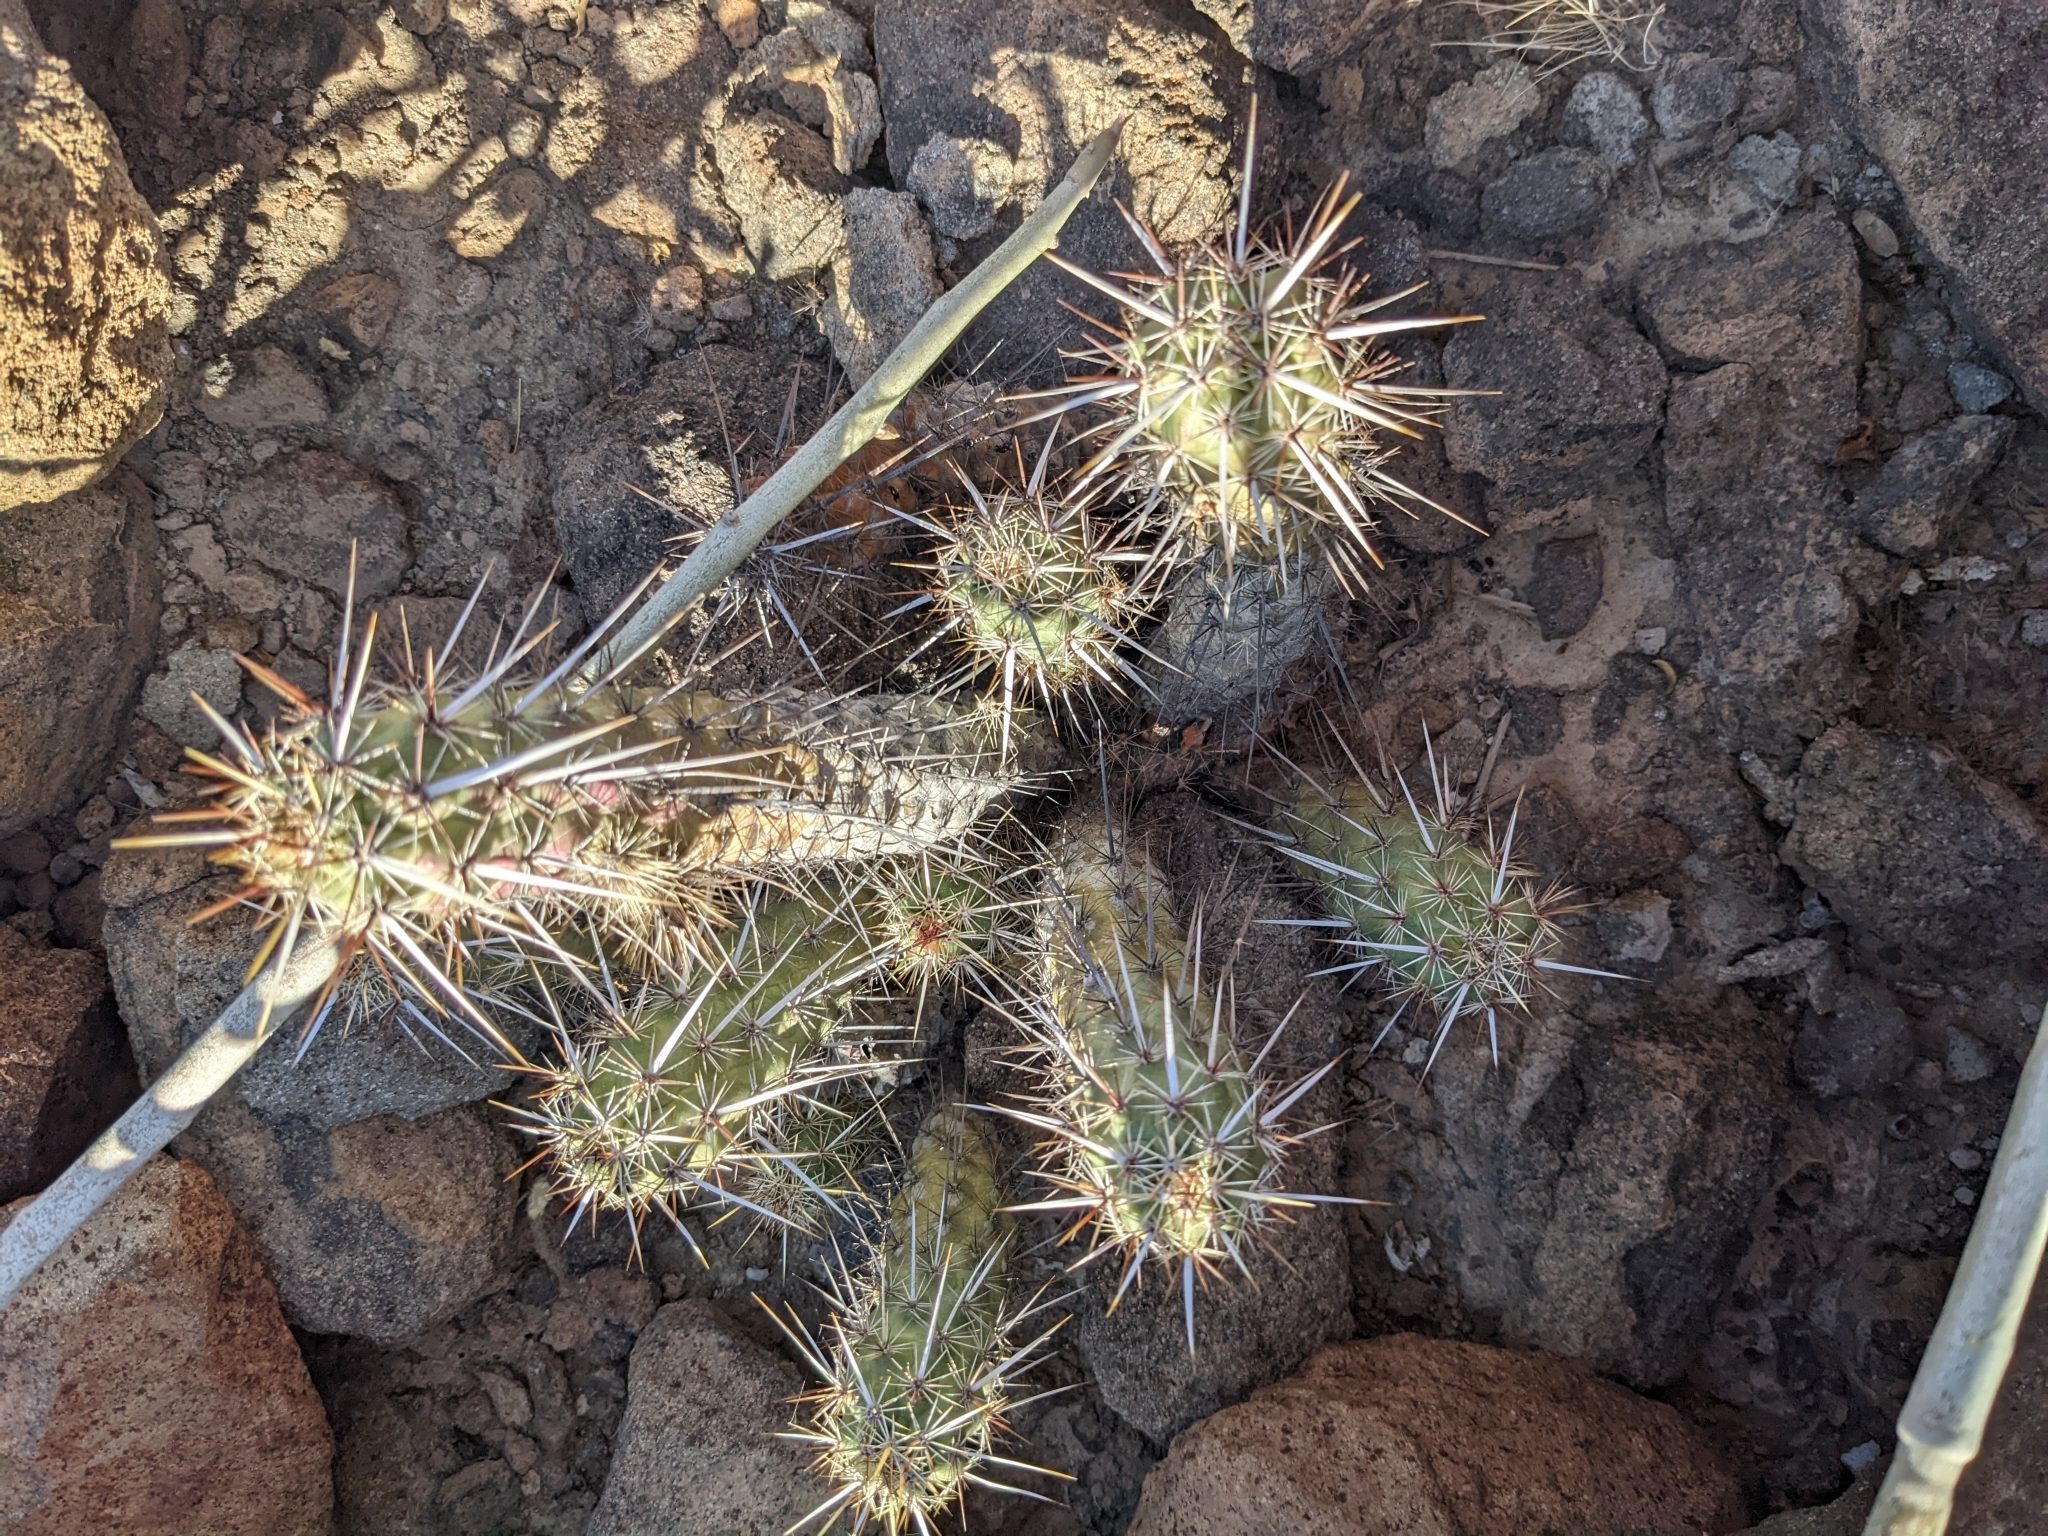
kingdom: Plantae
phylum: Tracheophyta
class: Magnoliopsida
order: Caryophyllales
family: Cactaceae
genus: Echinocereus
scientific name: Echinocereus brandegeei
